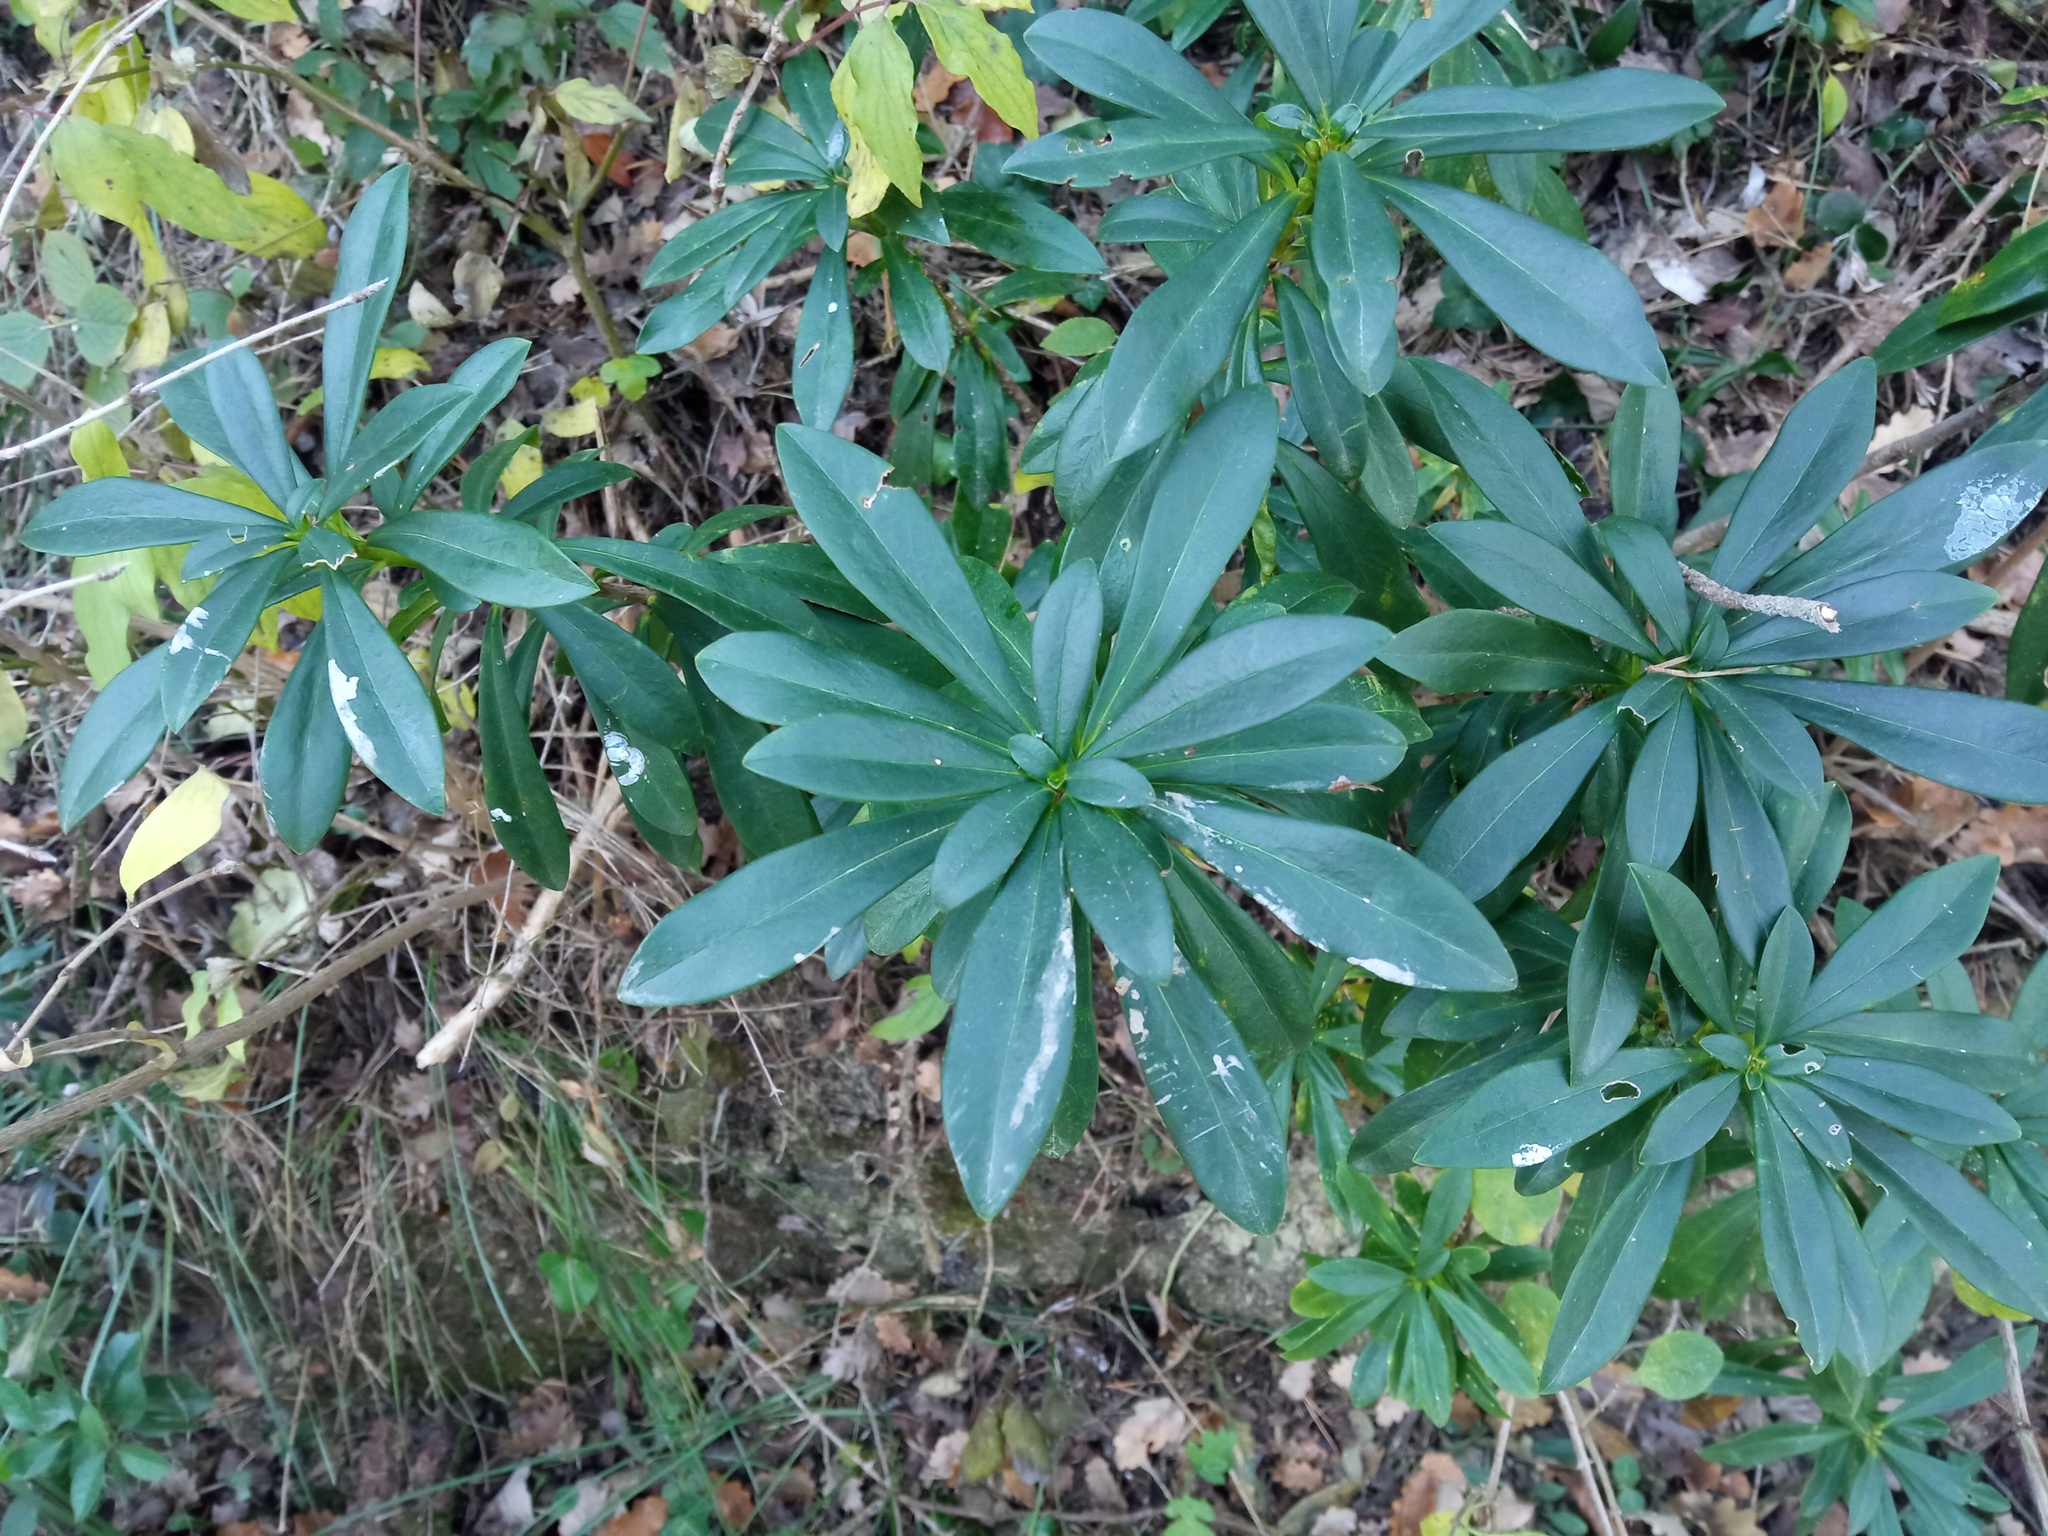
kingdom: Plantae
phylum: Tracheophyta
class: Magnoliopsida
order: Malvales
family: Thymelaeaceae
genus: Daphne
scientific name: Daphne laureola
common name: Spurge-laurel
